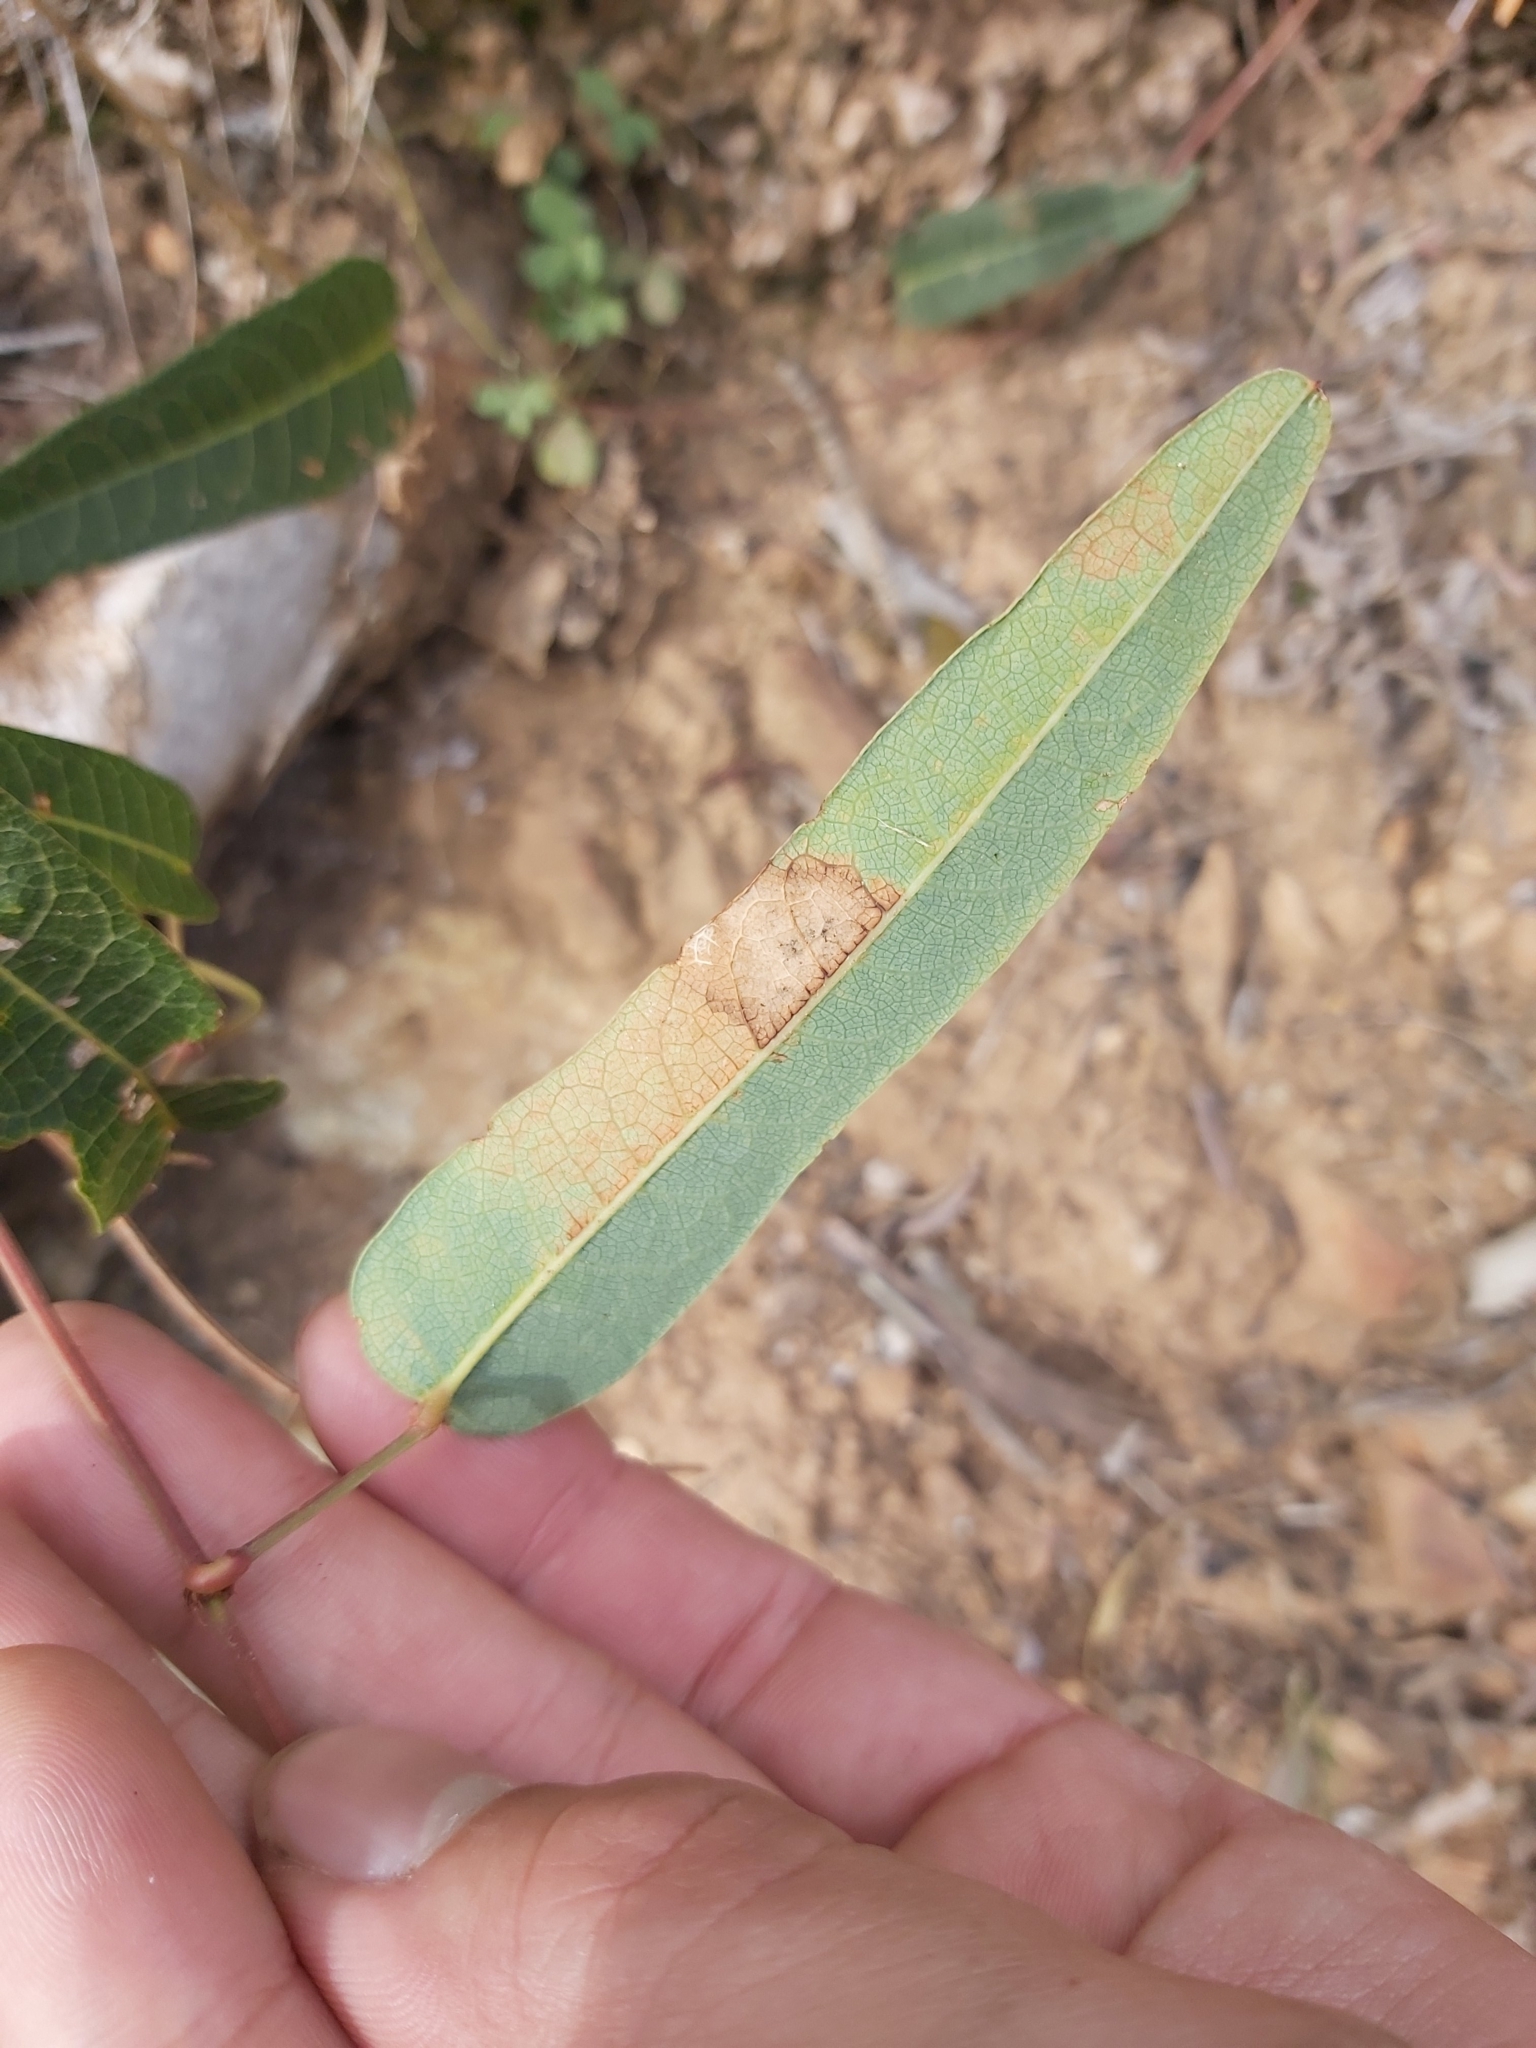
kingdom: Plantae
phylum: Tracheophyta
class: Magnoliopsida
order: Fabales
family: Fabaceae
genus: Hardenbergia
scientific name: Hardenbergia violacea
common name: Coral-pea
